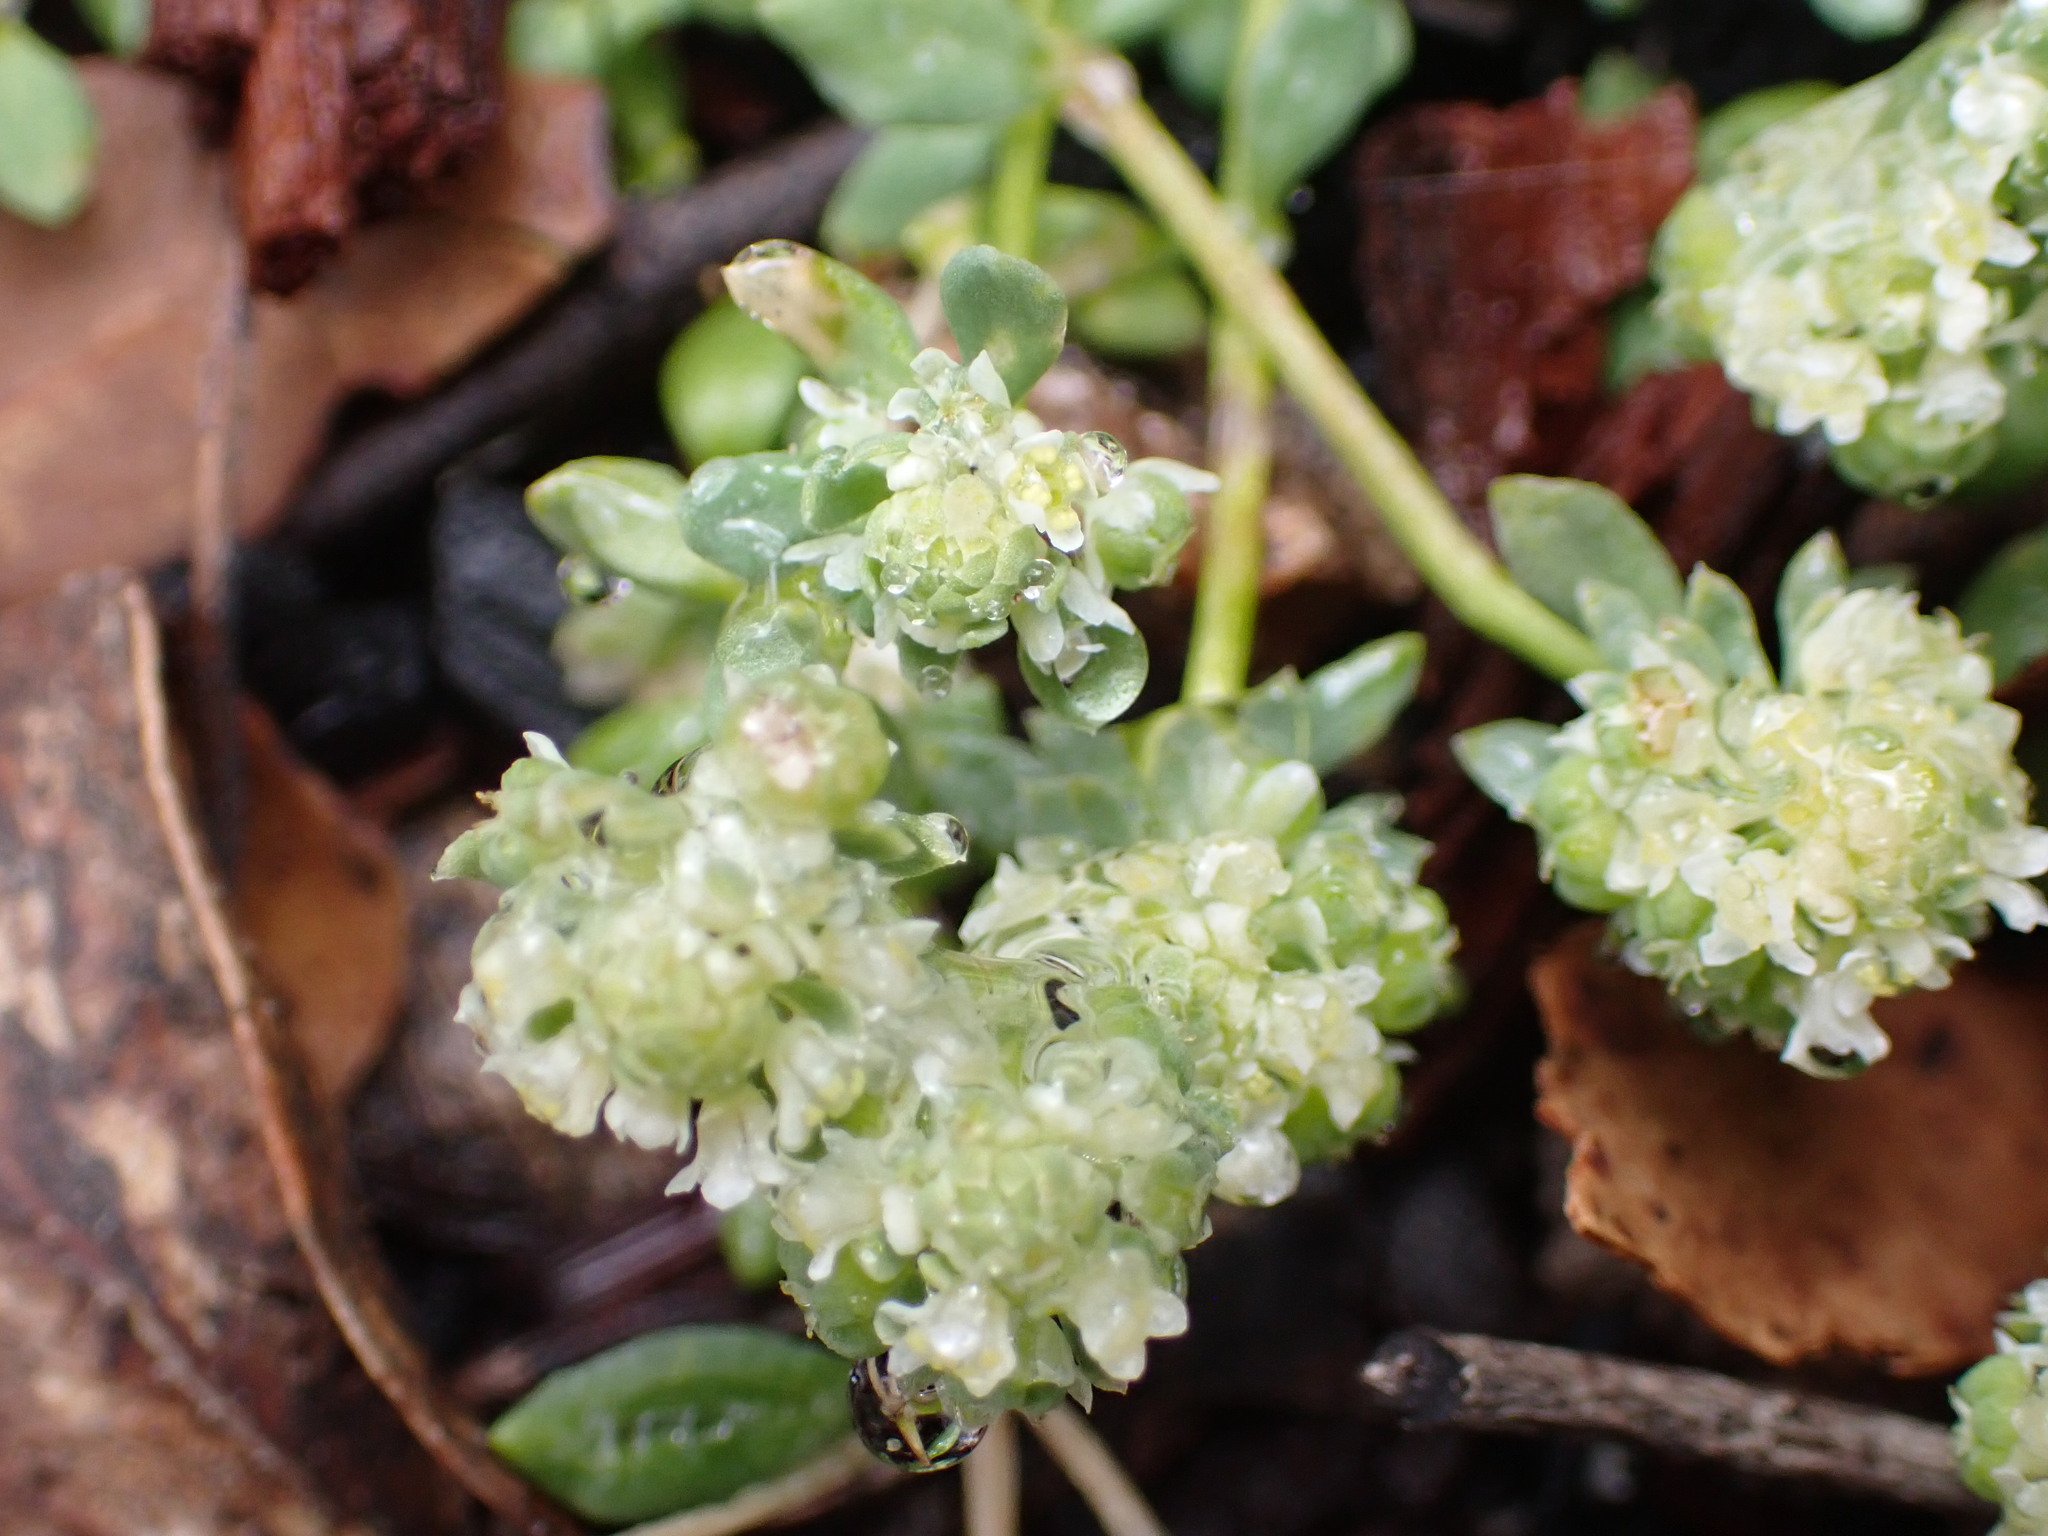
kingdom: Plantae
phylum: Tracheophyta
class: Magnoliopsida
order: Malpighiales
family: Phyllanthaceae
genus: Poranthera
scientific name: Poranthera microphylla
